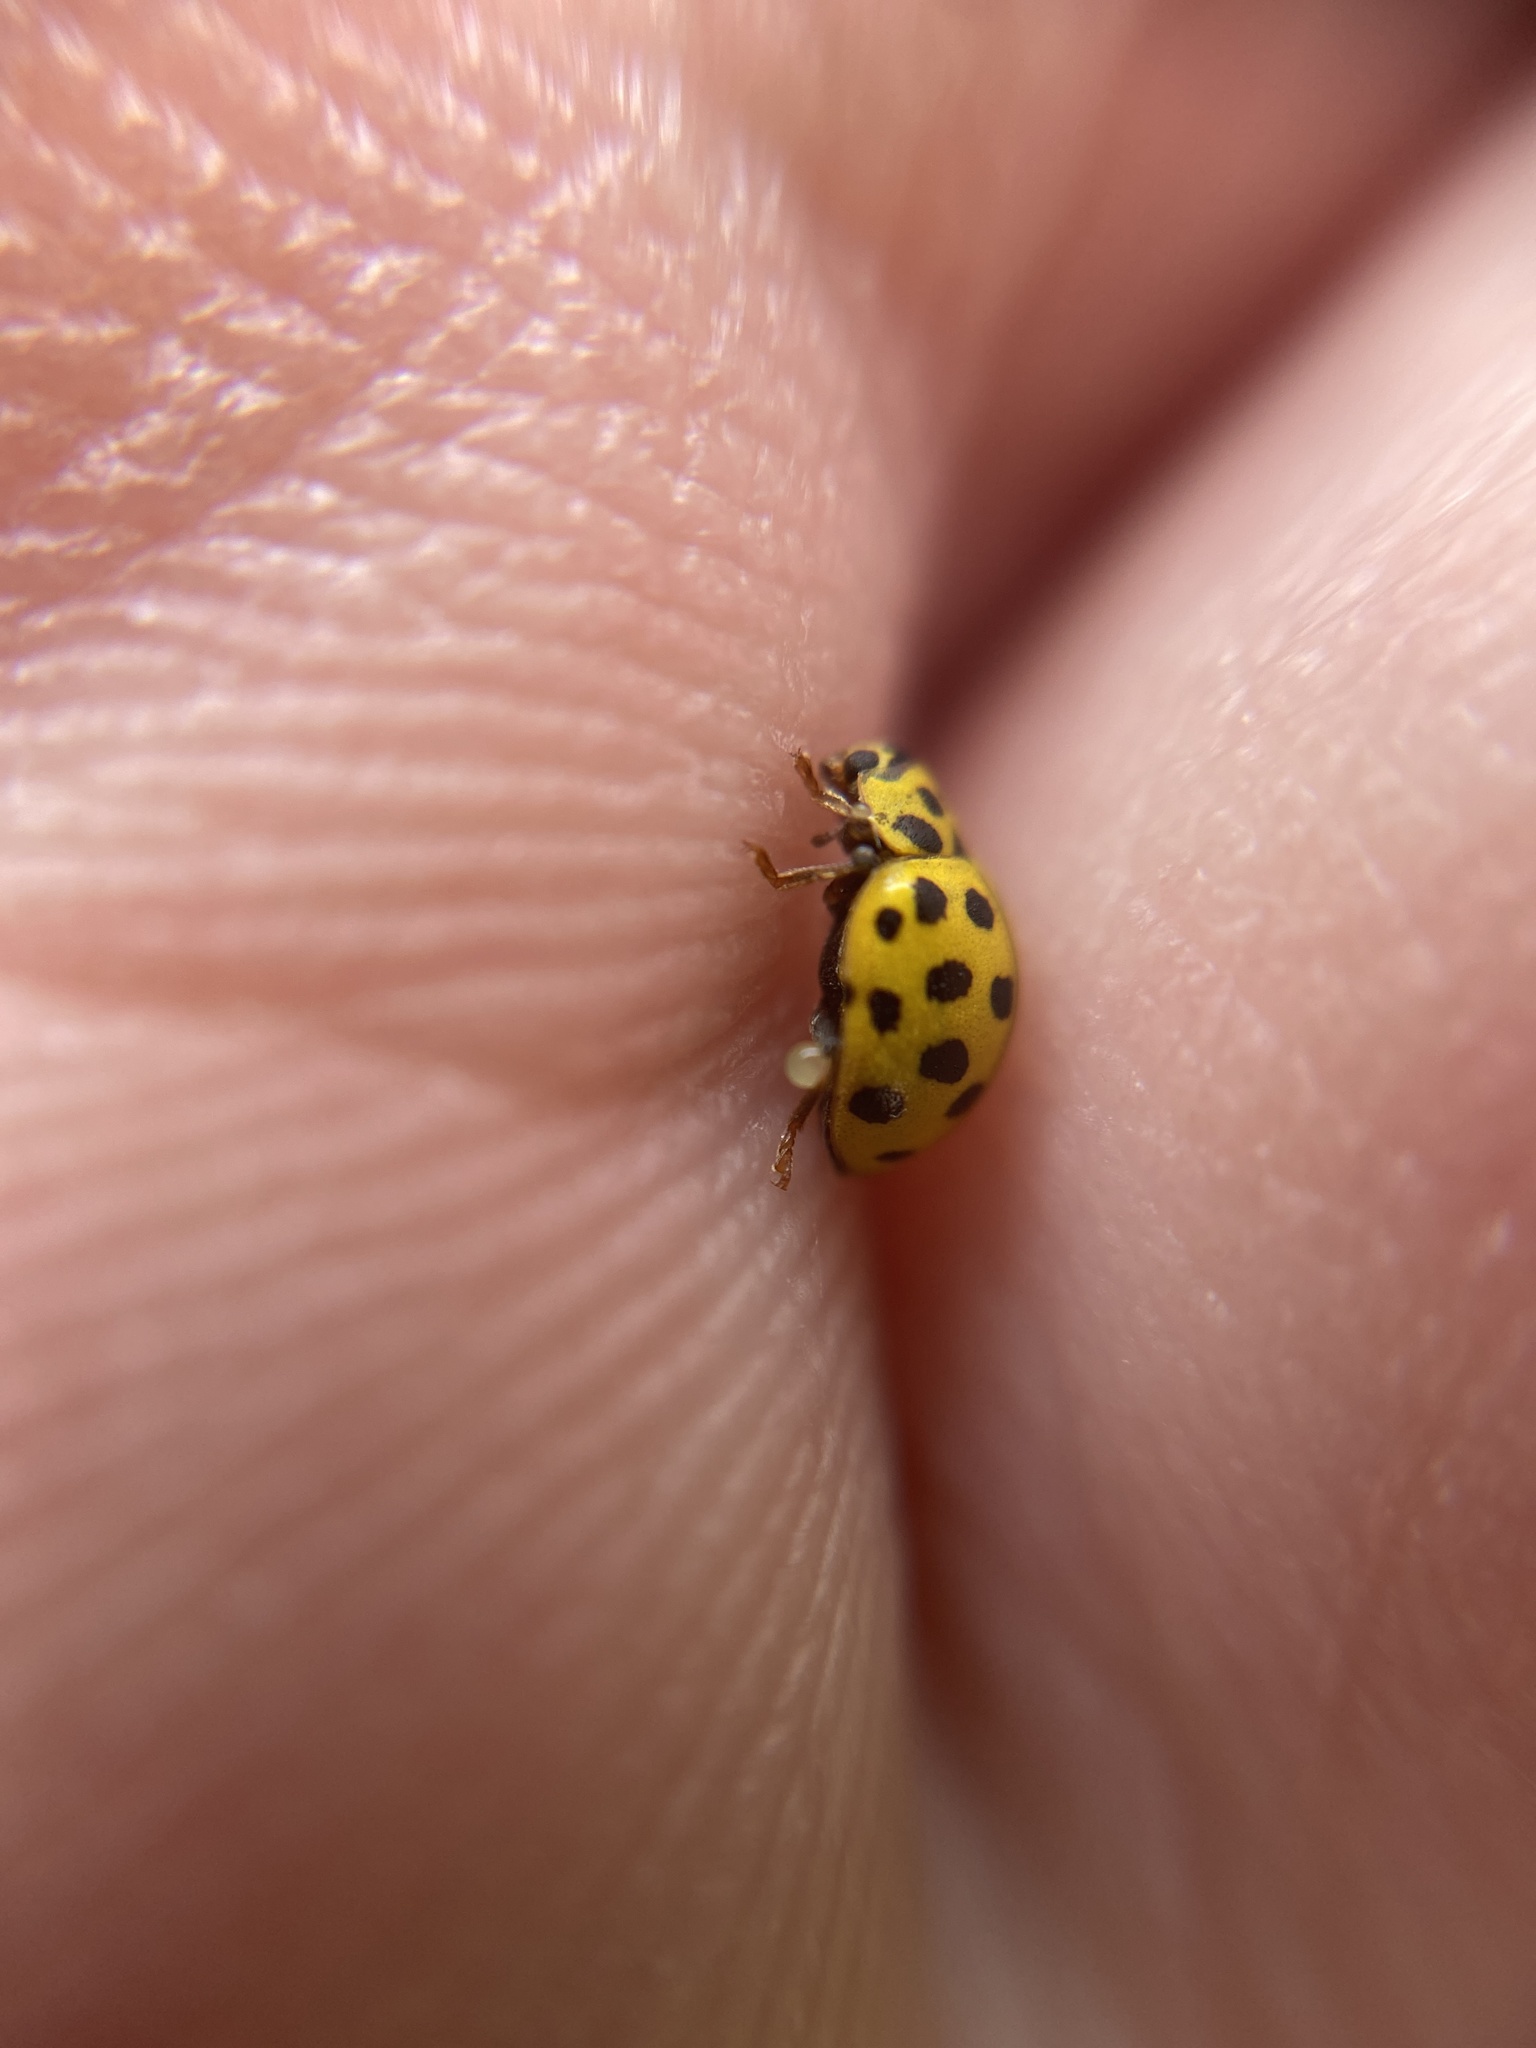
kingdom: Animalia
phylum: Arthropoda
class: Insecta
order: Coleoptera
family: Coccinellidae
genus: Psyllobora
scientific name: Psyllobora vigintiduopunctata
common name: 22-spot ladybird
